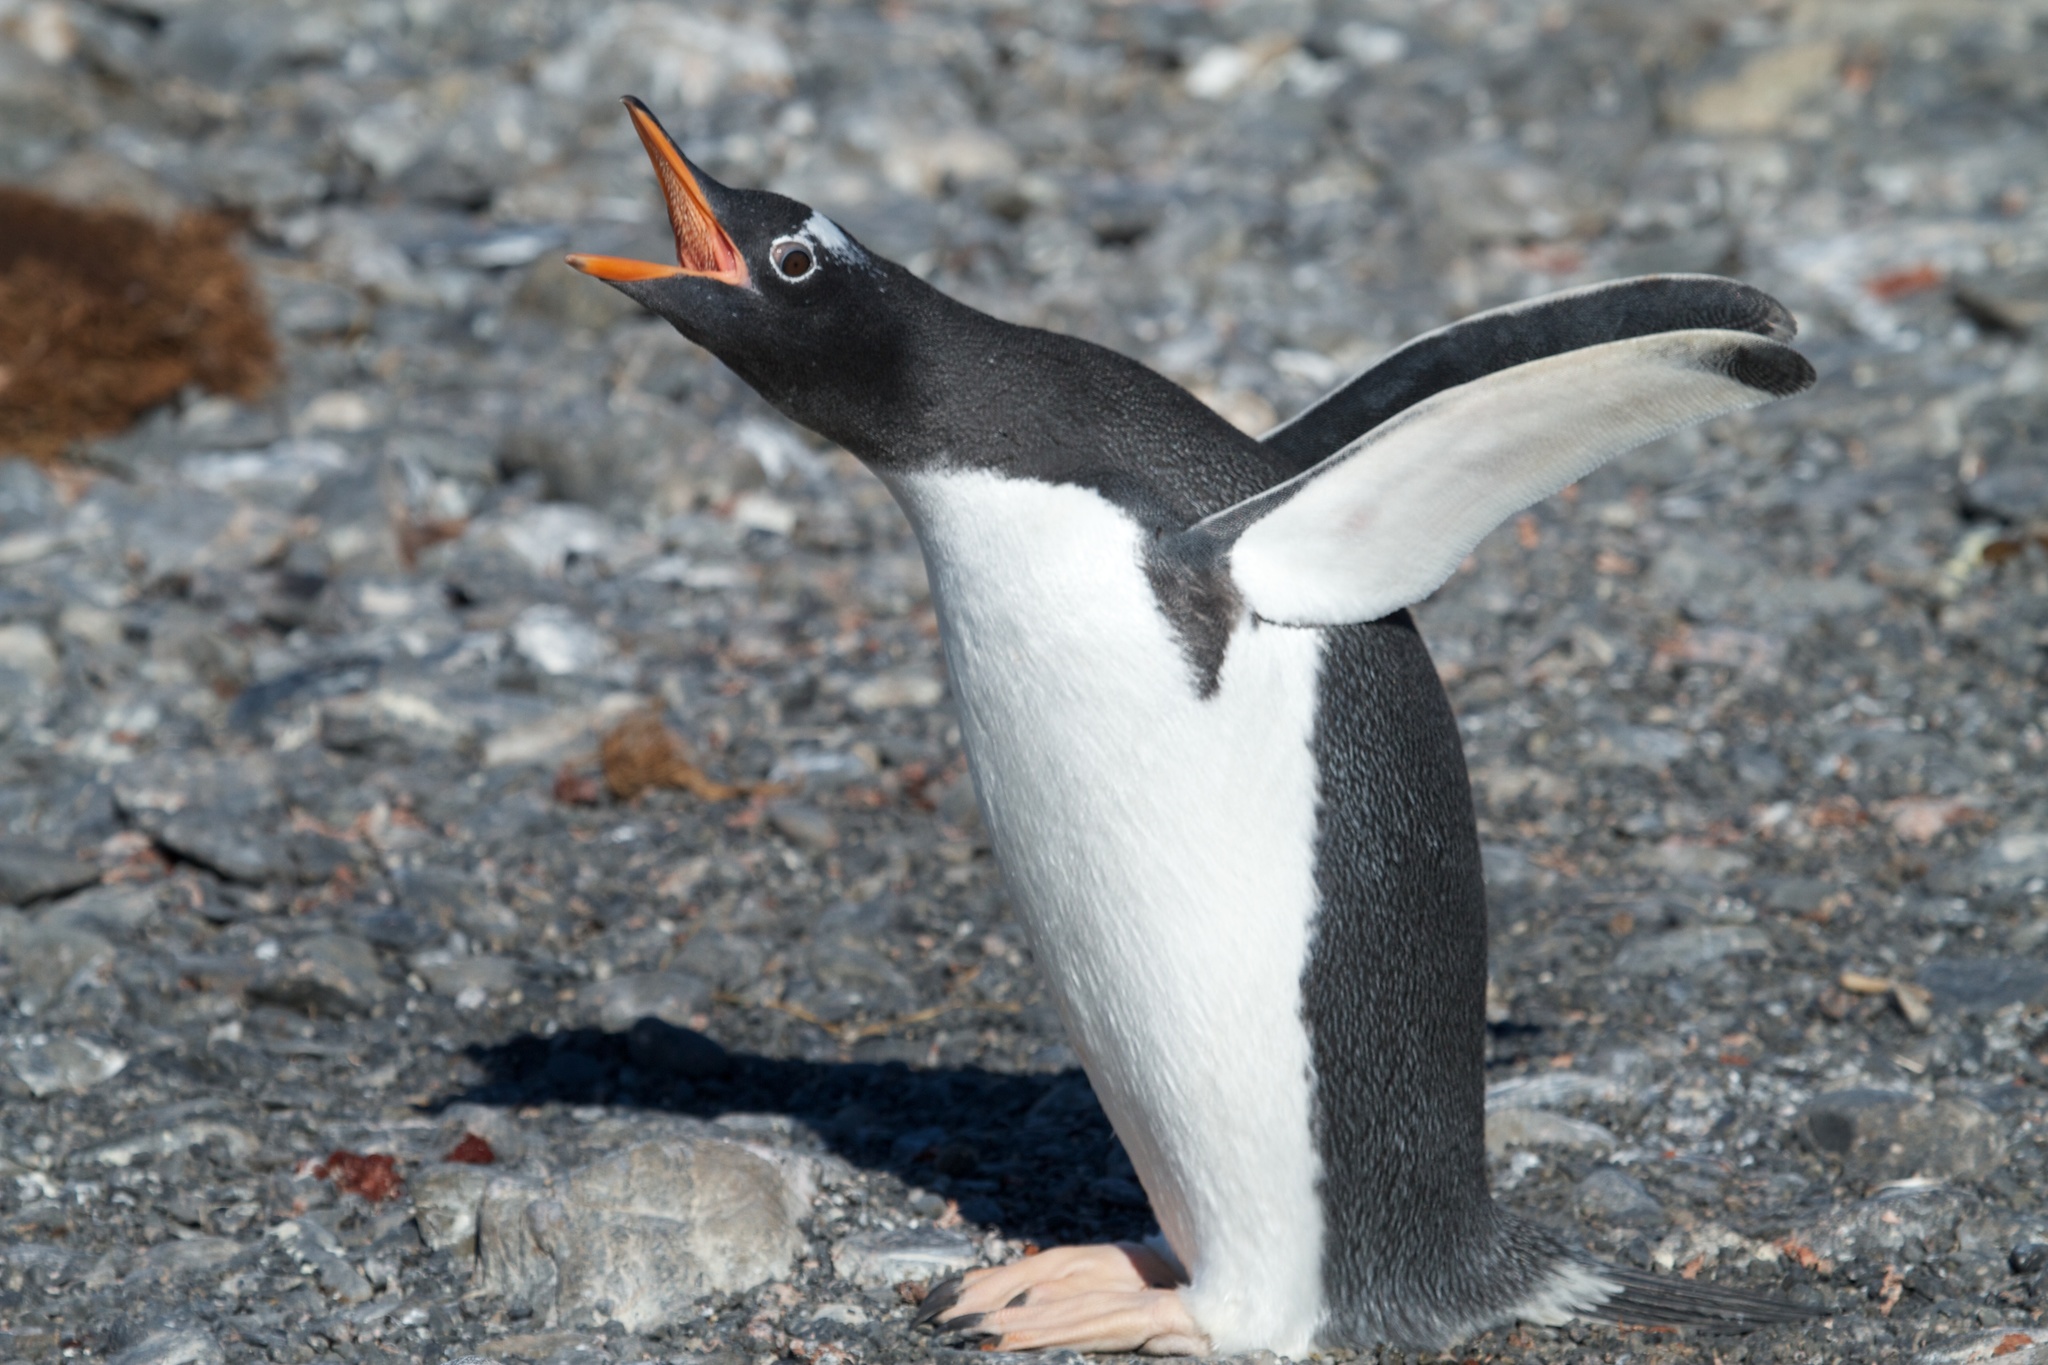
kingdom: Animalia
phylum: Chordata
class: Aves
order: Sphenisciformes
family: Spheniscidae
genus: Pygoscelis
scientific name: Pygoscelis papua
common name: Gentoo penguin
